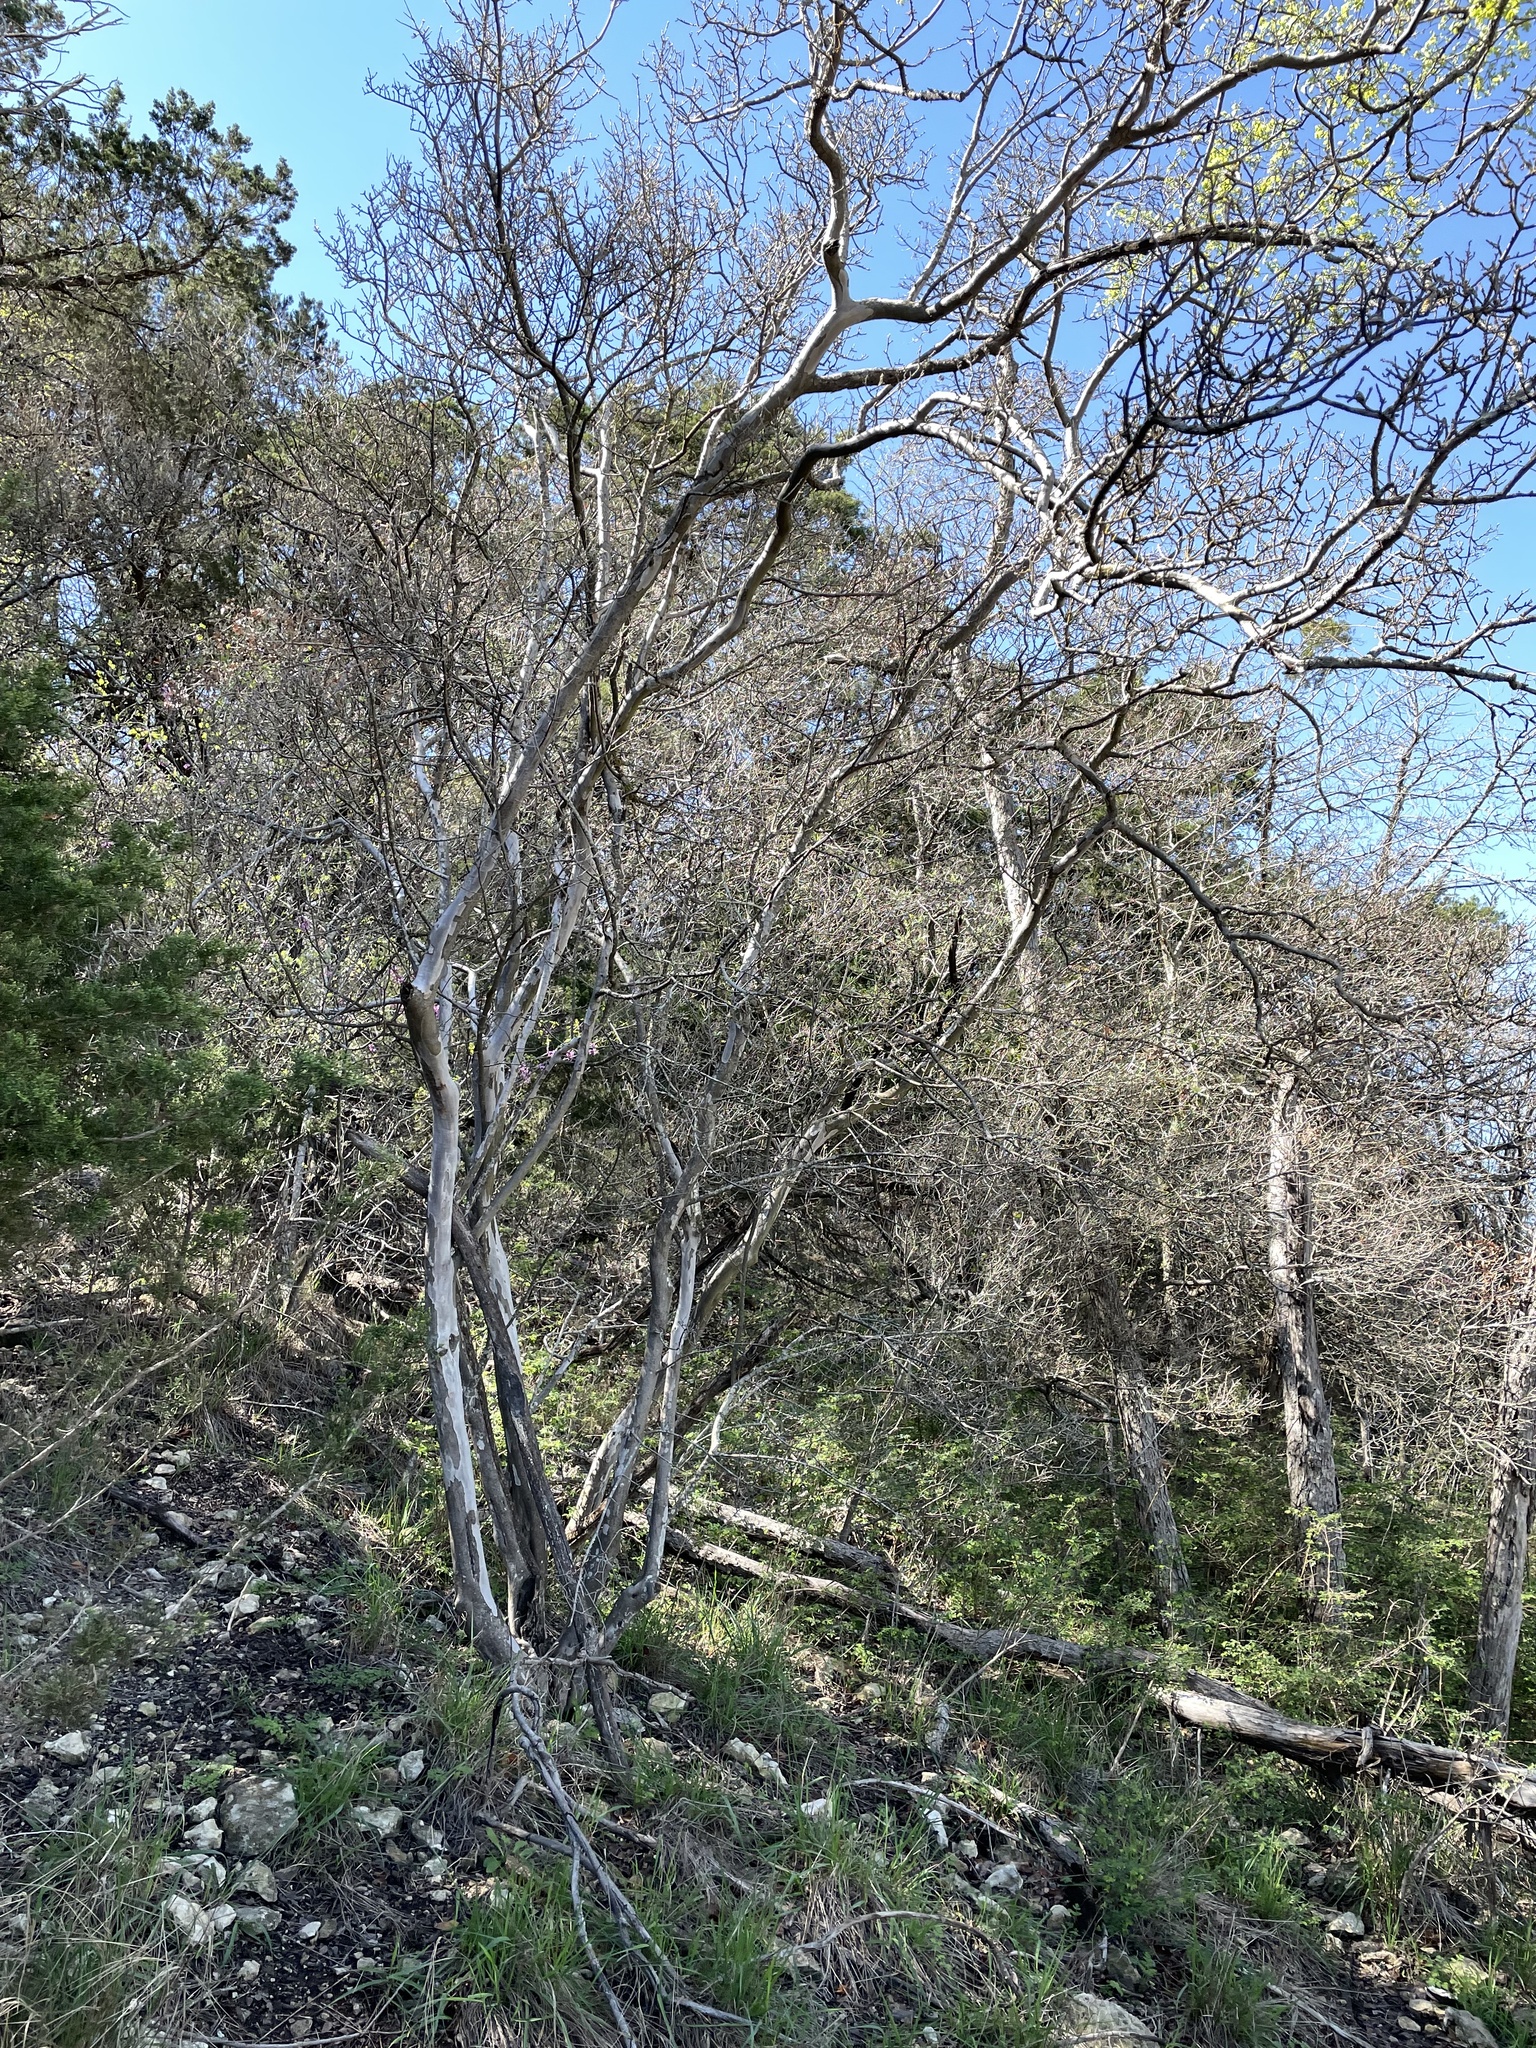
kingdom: Plantae
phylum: Tracheophyta
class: Magnoliopsida
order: Ericales
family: Ebenaceae
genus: Diospyros
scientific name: Diospyros texana
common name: Texas persimmon
